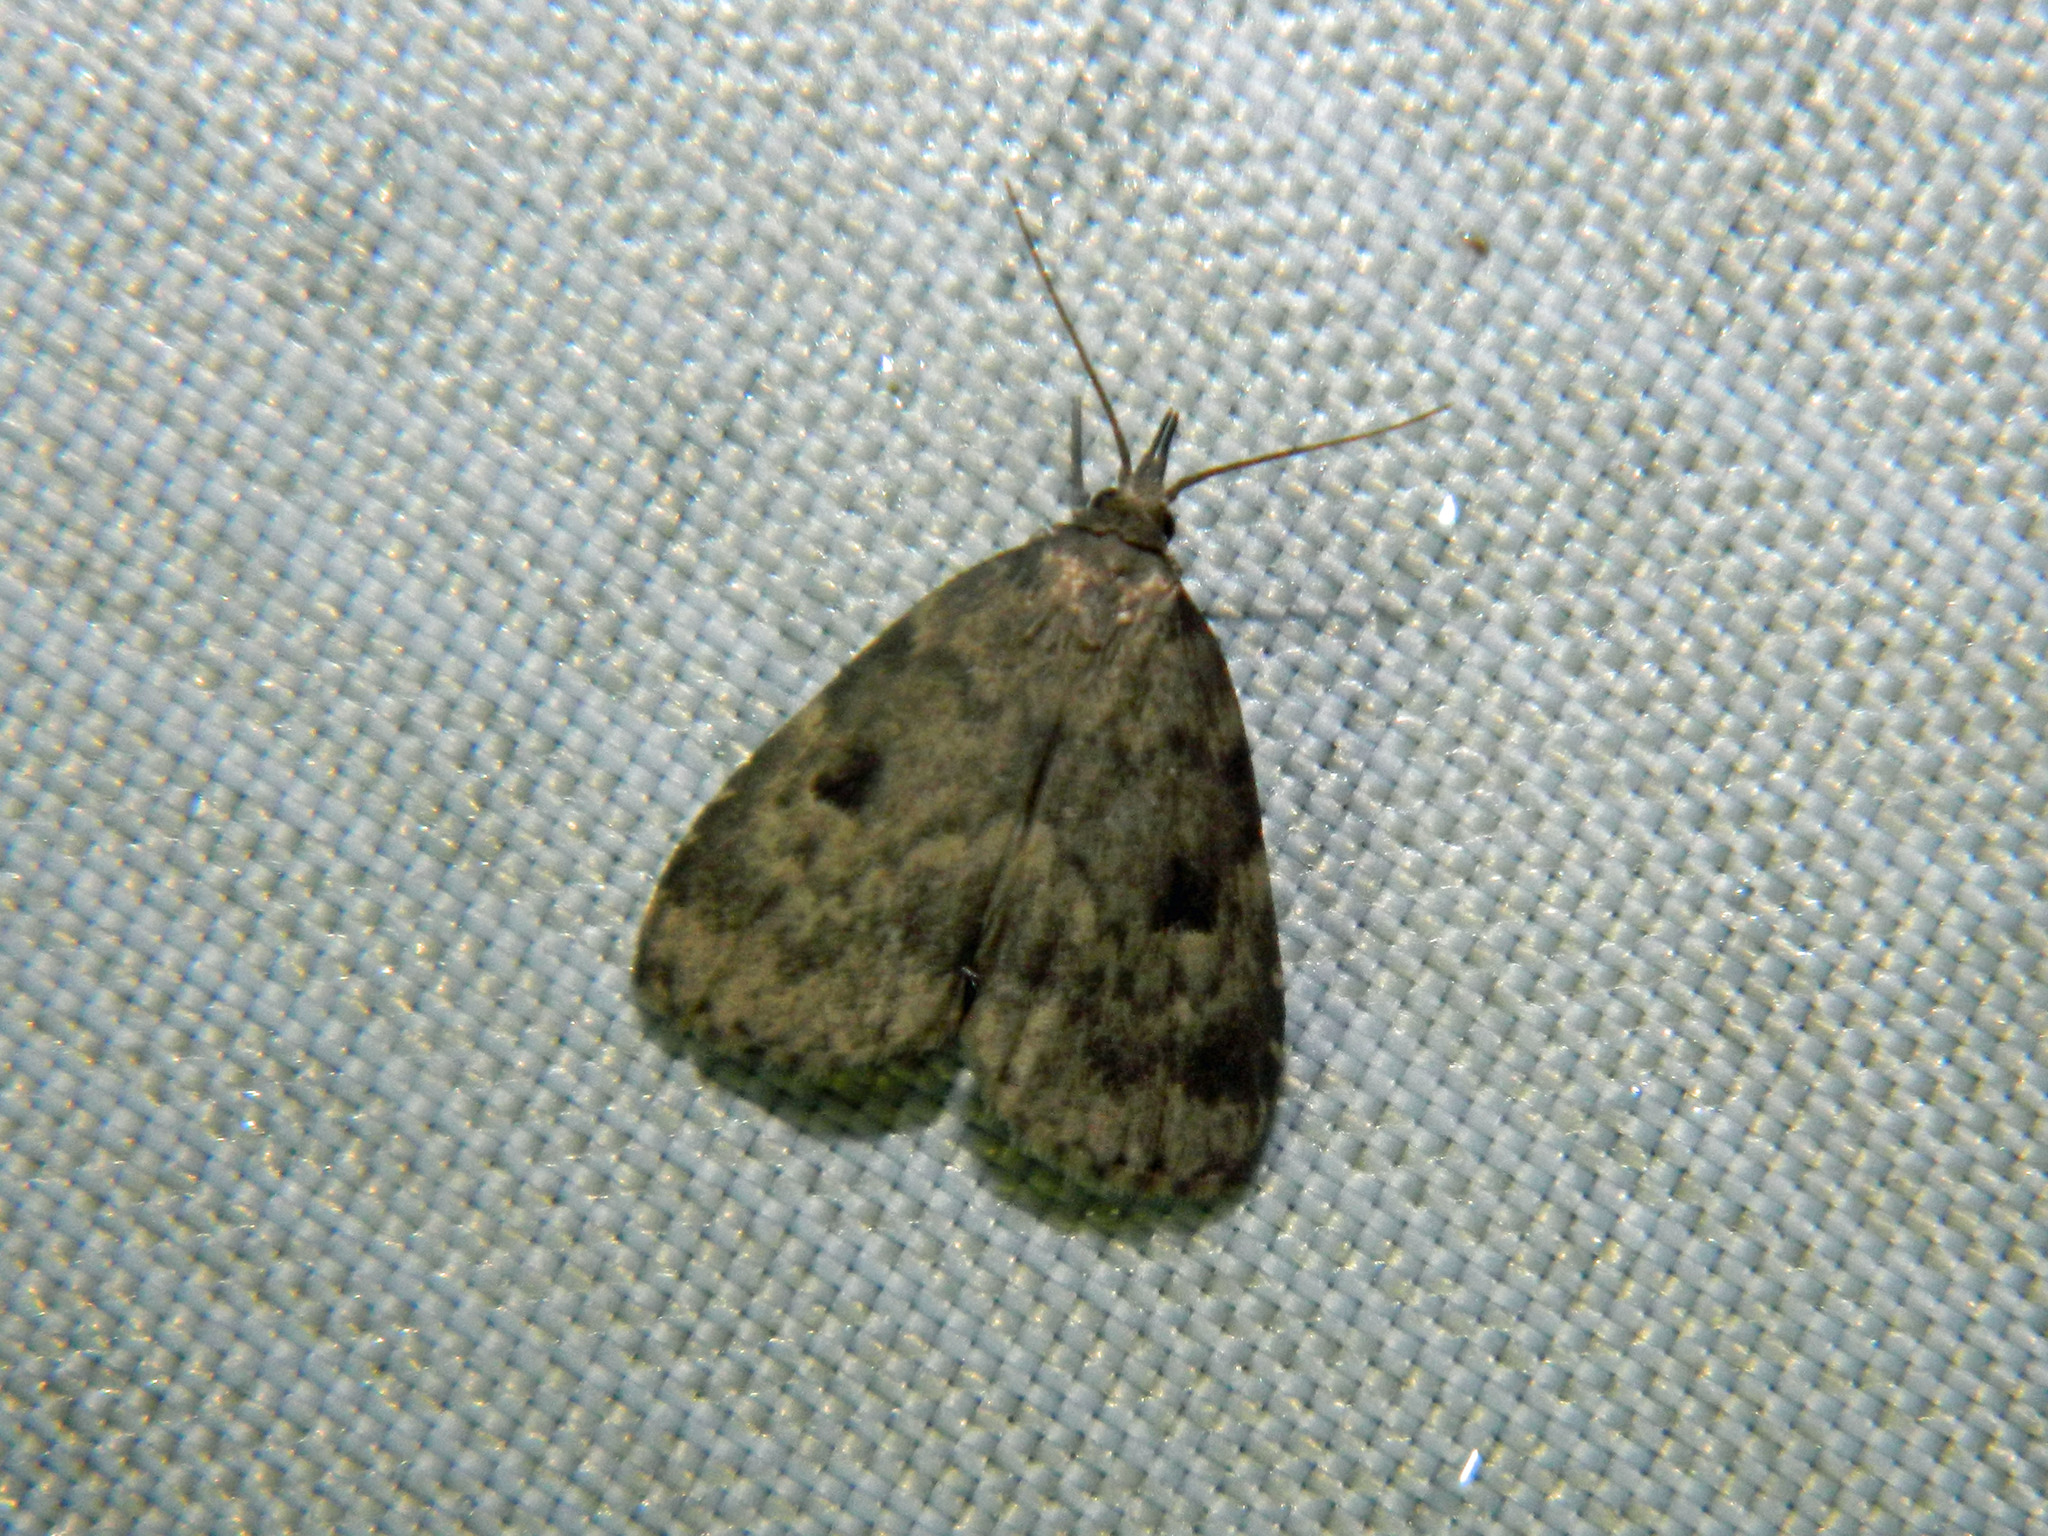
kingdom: Animalia
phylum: Arthropoda
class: Insecta
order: Lepidoptera
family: Erebidae
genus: Paradelta
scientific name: Paradelta Parahypenodes quadralis
